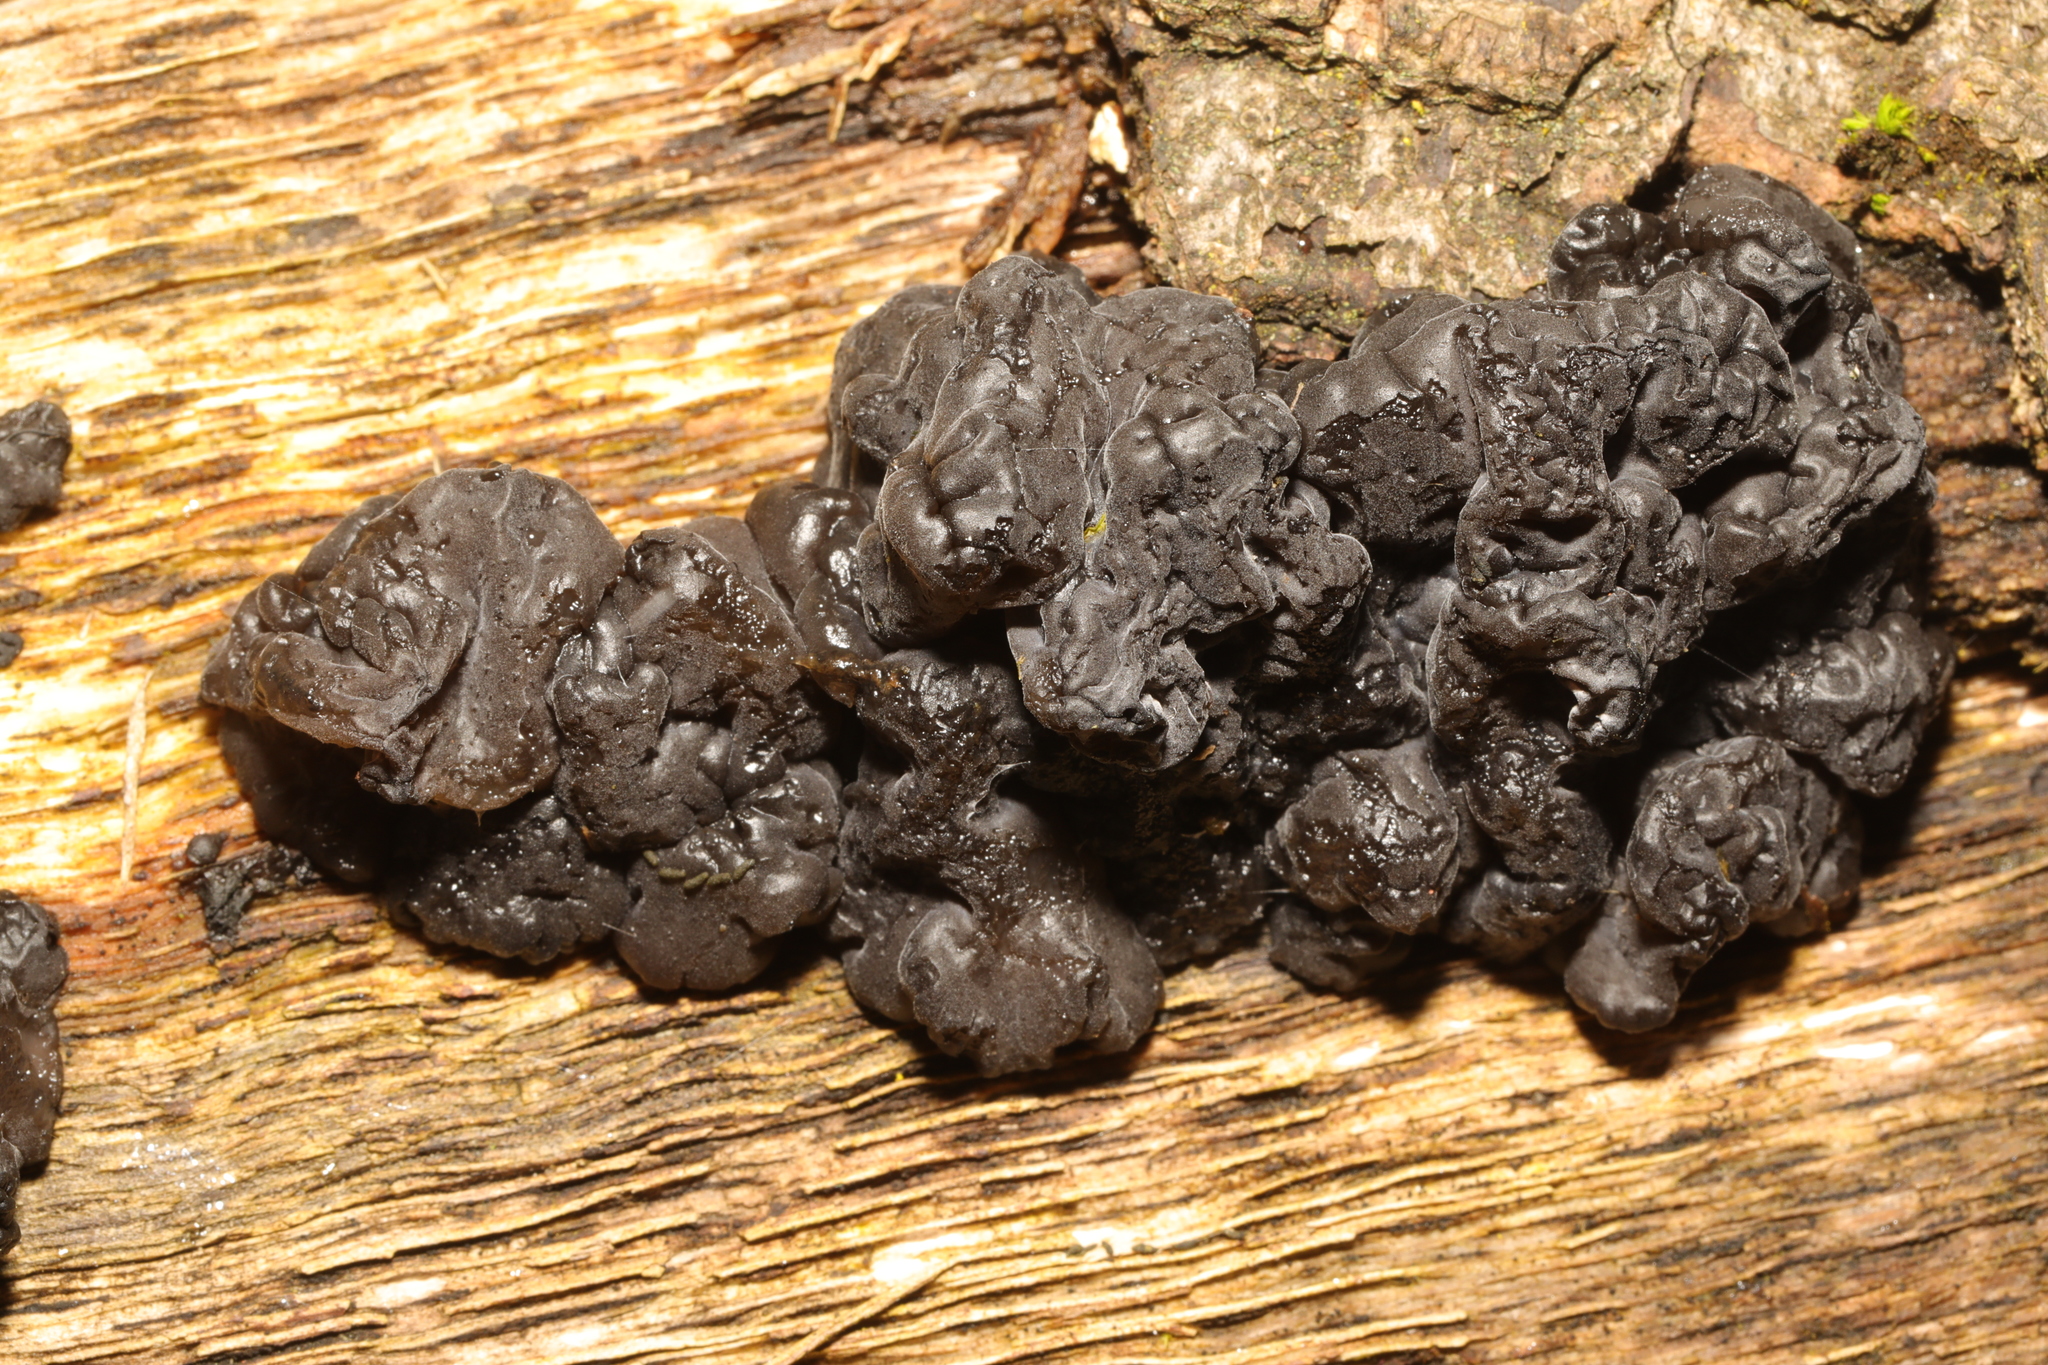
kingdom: Fungi
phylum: Basidiomycota
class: Agaricomycetes
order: Auriculariales
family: Auriculariaceae
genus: Exidia
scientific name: Exidia glandulosa
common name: Witches' butter
